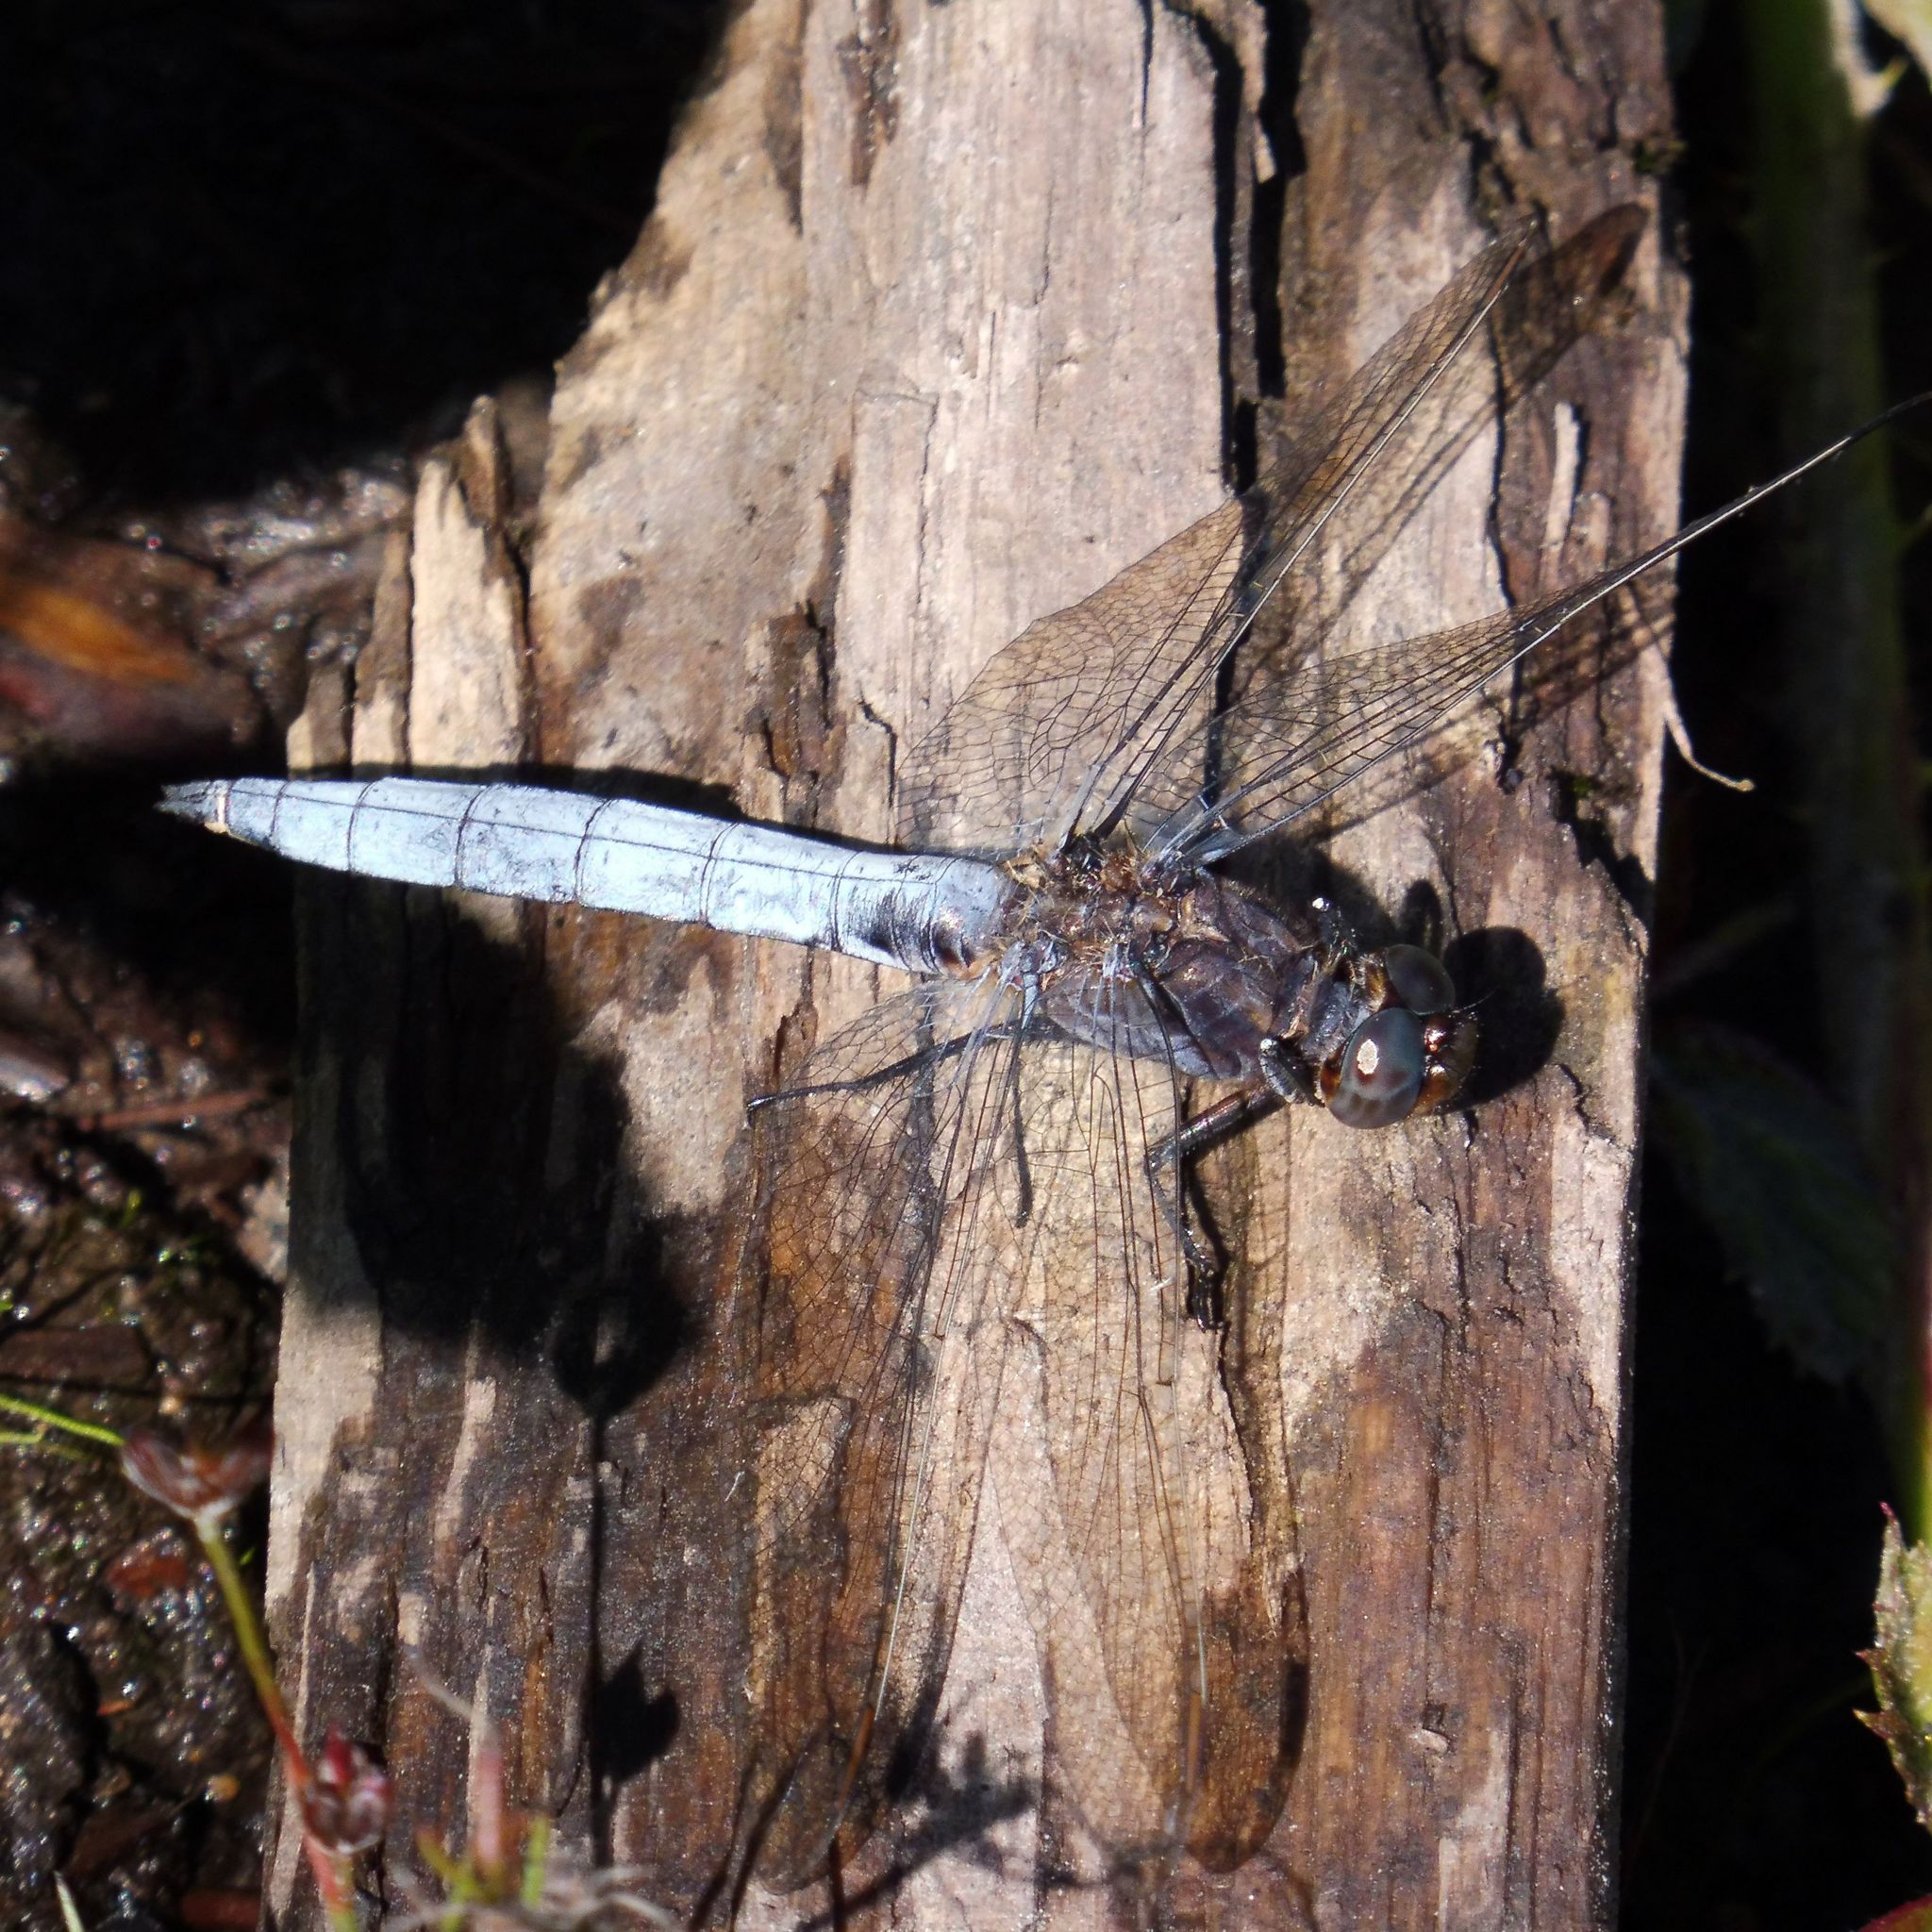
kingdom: Animalia
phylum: Arthropoda
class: Insecta
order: Odonata
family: Libellulidae
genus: Orthetrum
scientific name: Orthetrum coerulescens
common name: Keeled skimmer
